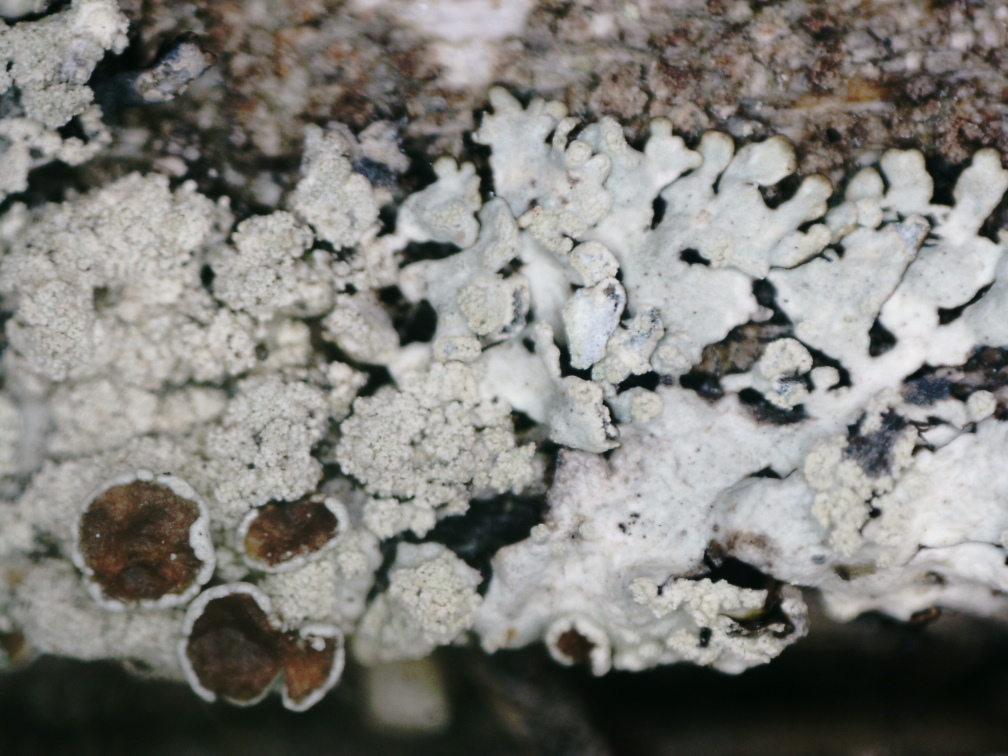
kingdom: Fungi
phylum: Ascomycota
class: Lecanoromycetes
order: Lecanorales
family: Parmeliaceae
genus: Parmeliopsis
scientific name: Parmeliopsis ambigua
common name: Green starburst lichen
